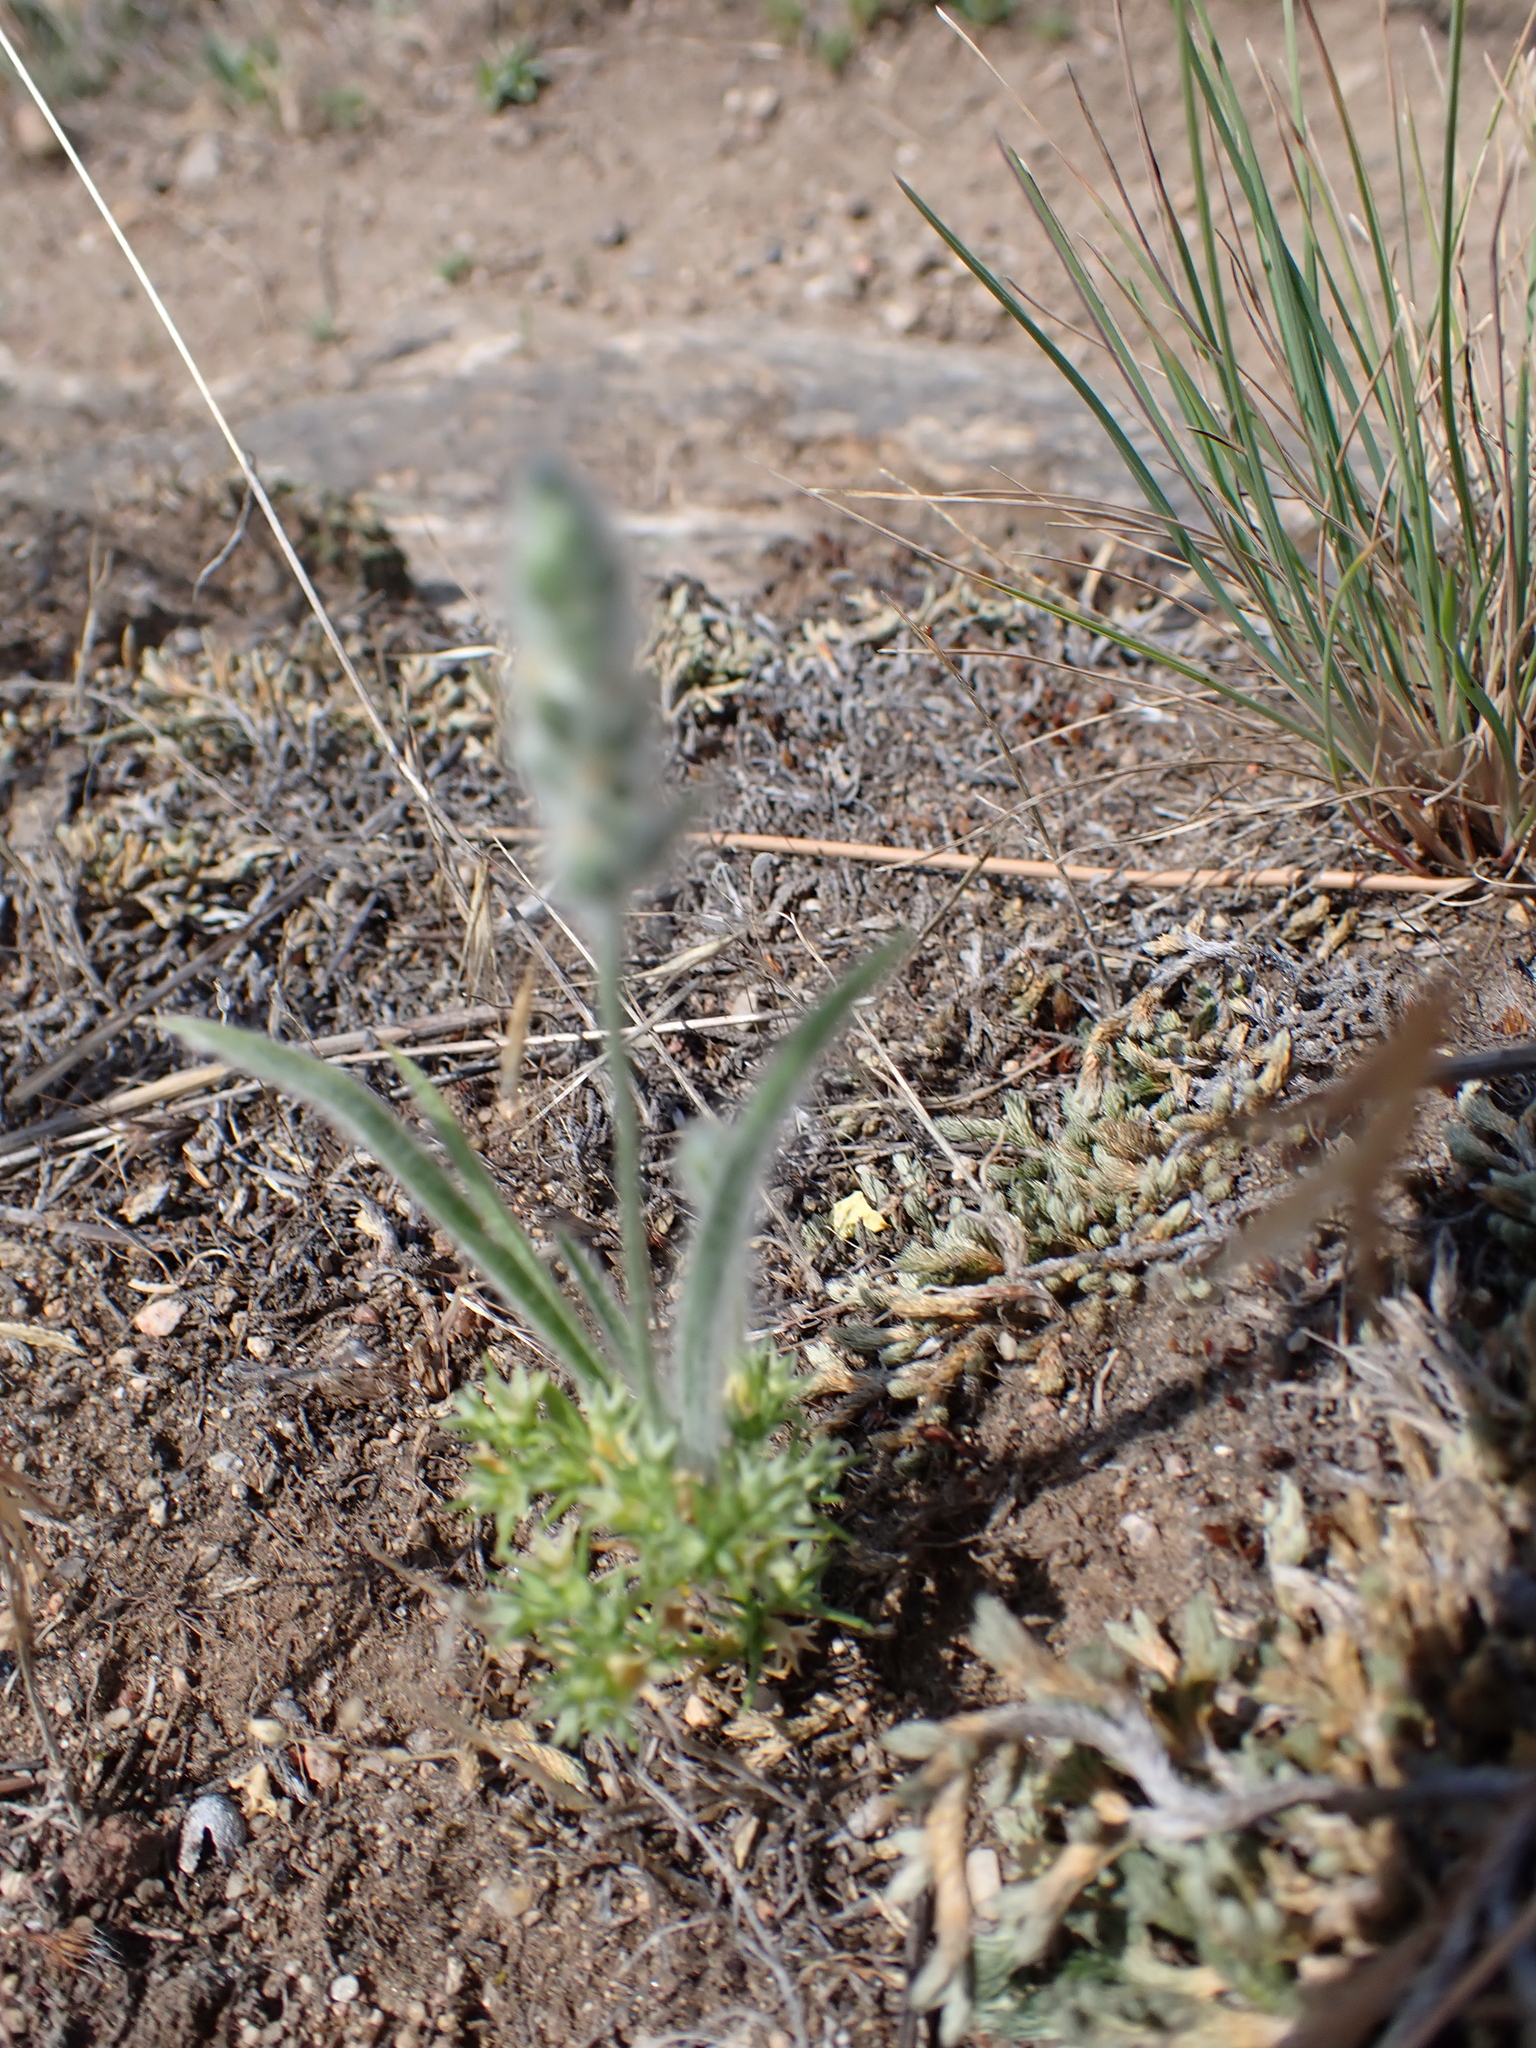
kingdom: Plantae
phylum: Tracheophyta
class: Magnoliopsida
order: Lamiales
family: Plantaginaceae
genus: Plantago
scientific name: Plantago patagonica
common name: Patagonia indian-wheat
